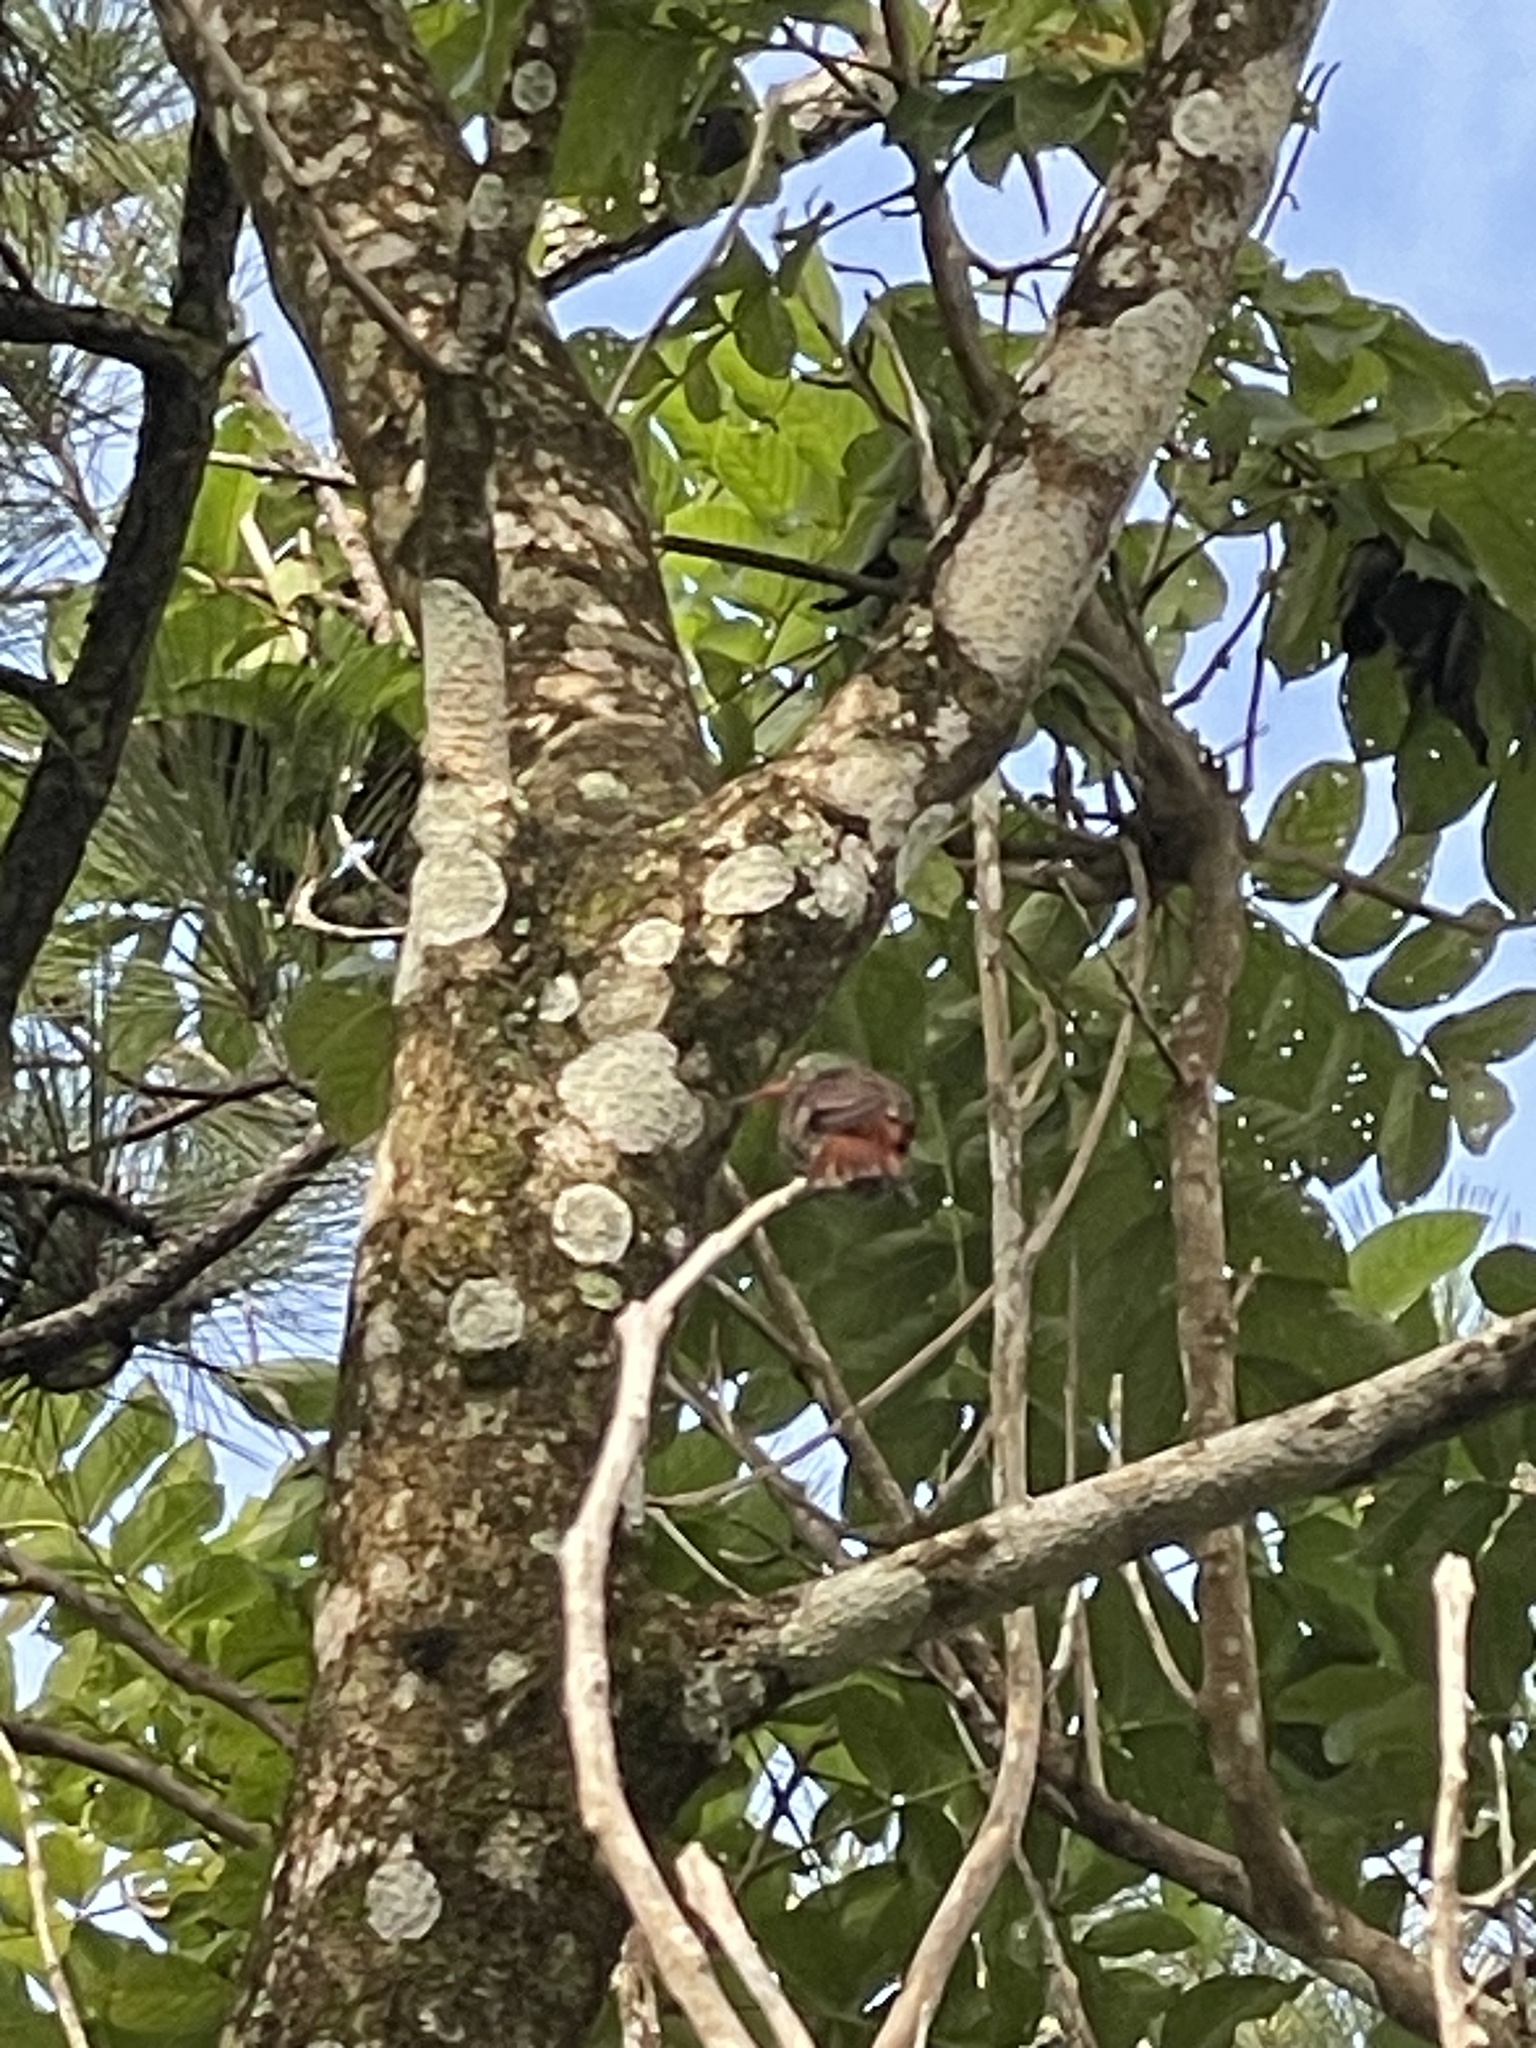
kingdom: Animalia
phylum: Chordata
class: Aves
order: Apodiformes
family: Trochilidae
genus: Amazilia
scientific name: Amazilia tzacatl
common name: Rufous-tailed hummingbird
